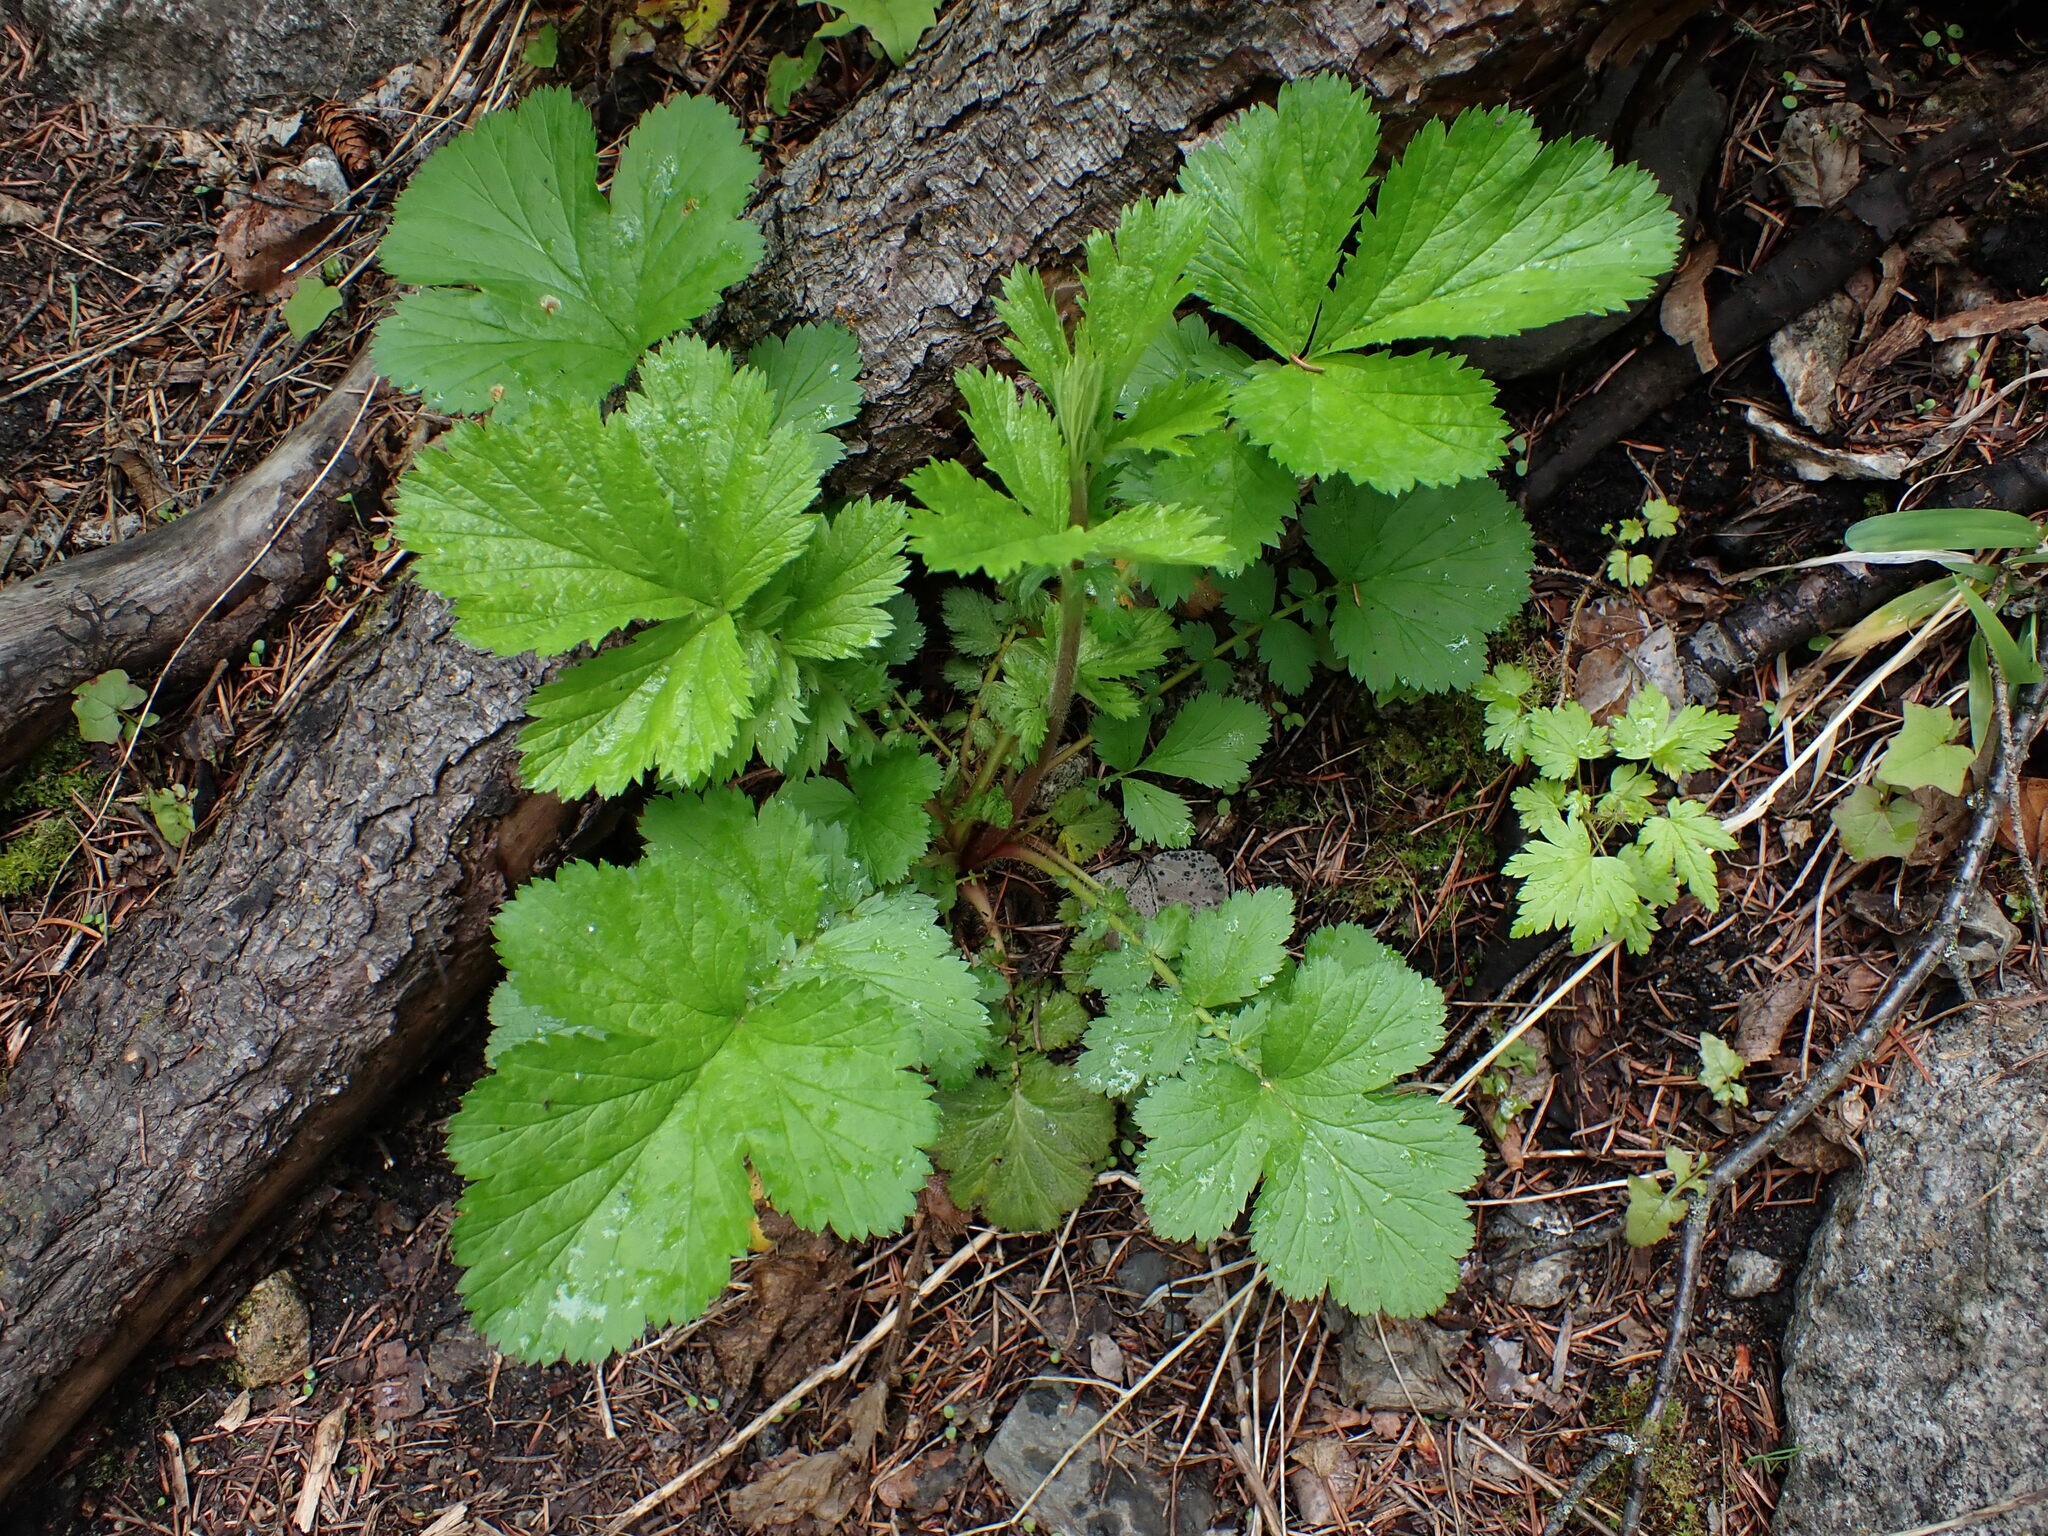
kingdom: Plantae
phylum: Tracheophyta
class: Magnoliopsida
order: Rosales
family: Rosaceae
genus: Geum
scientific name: Geum macrophyllum
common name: Large-leaved avens
